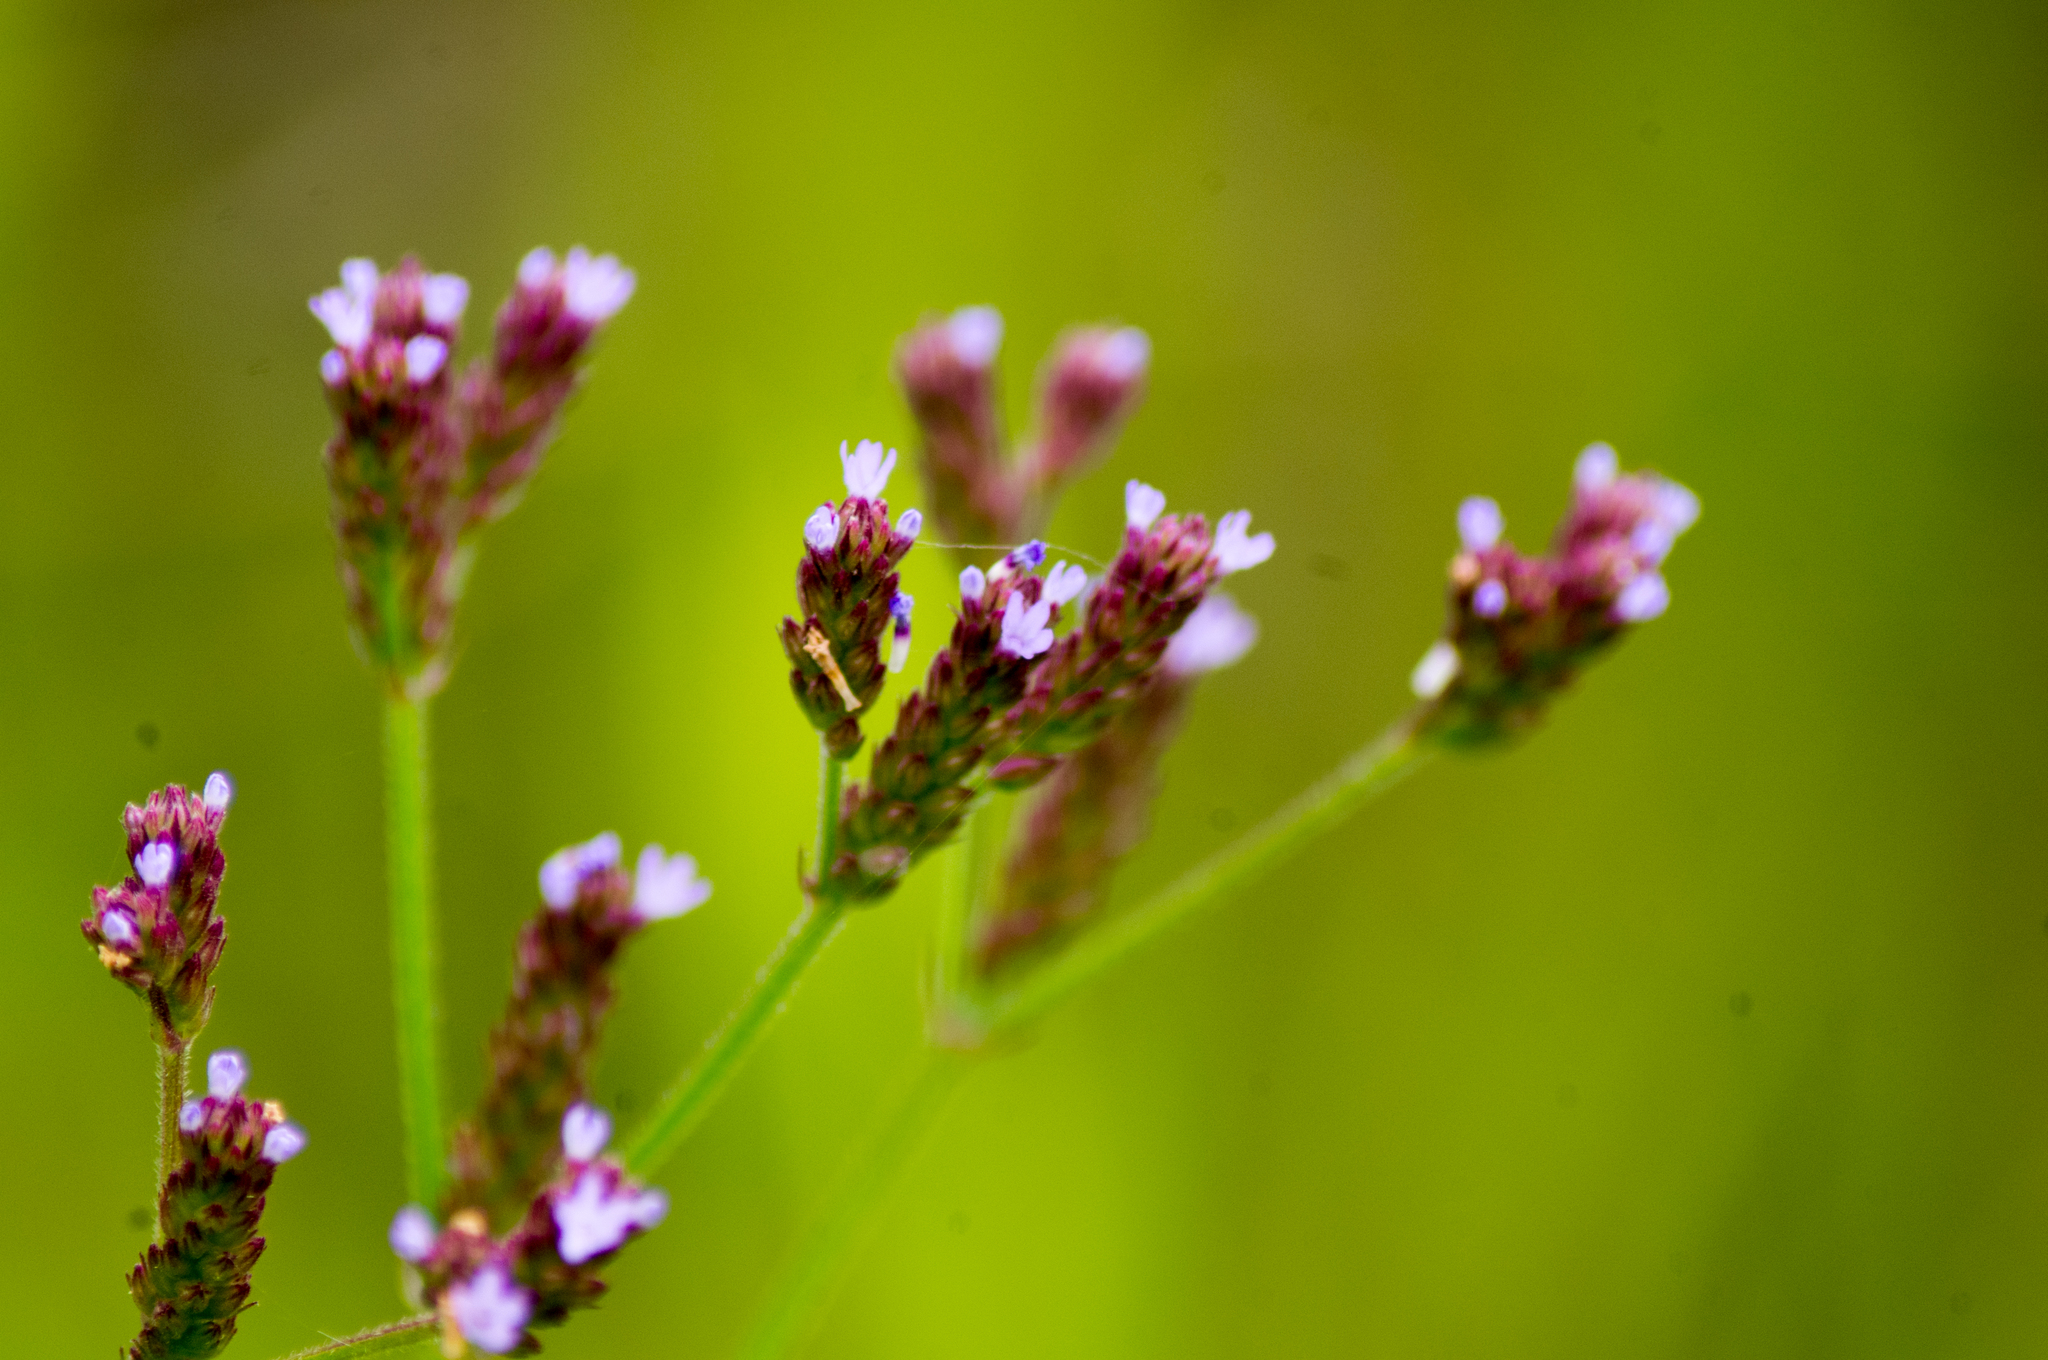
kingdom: Plantae
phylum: Tracheophyta
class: Magnoliopsida
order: Lamiales
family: Verbenaceae
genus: Verbena
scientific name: Verbena brasiliensis
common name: Brazilian vervain
